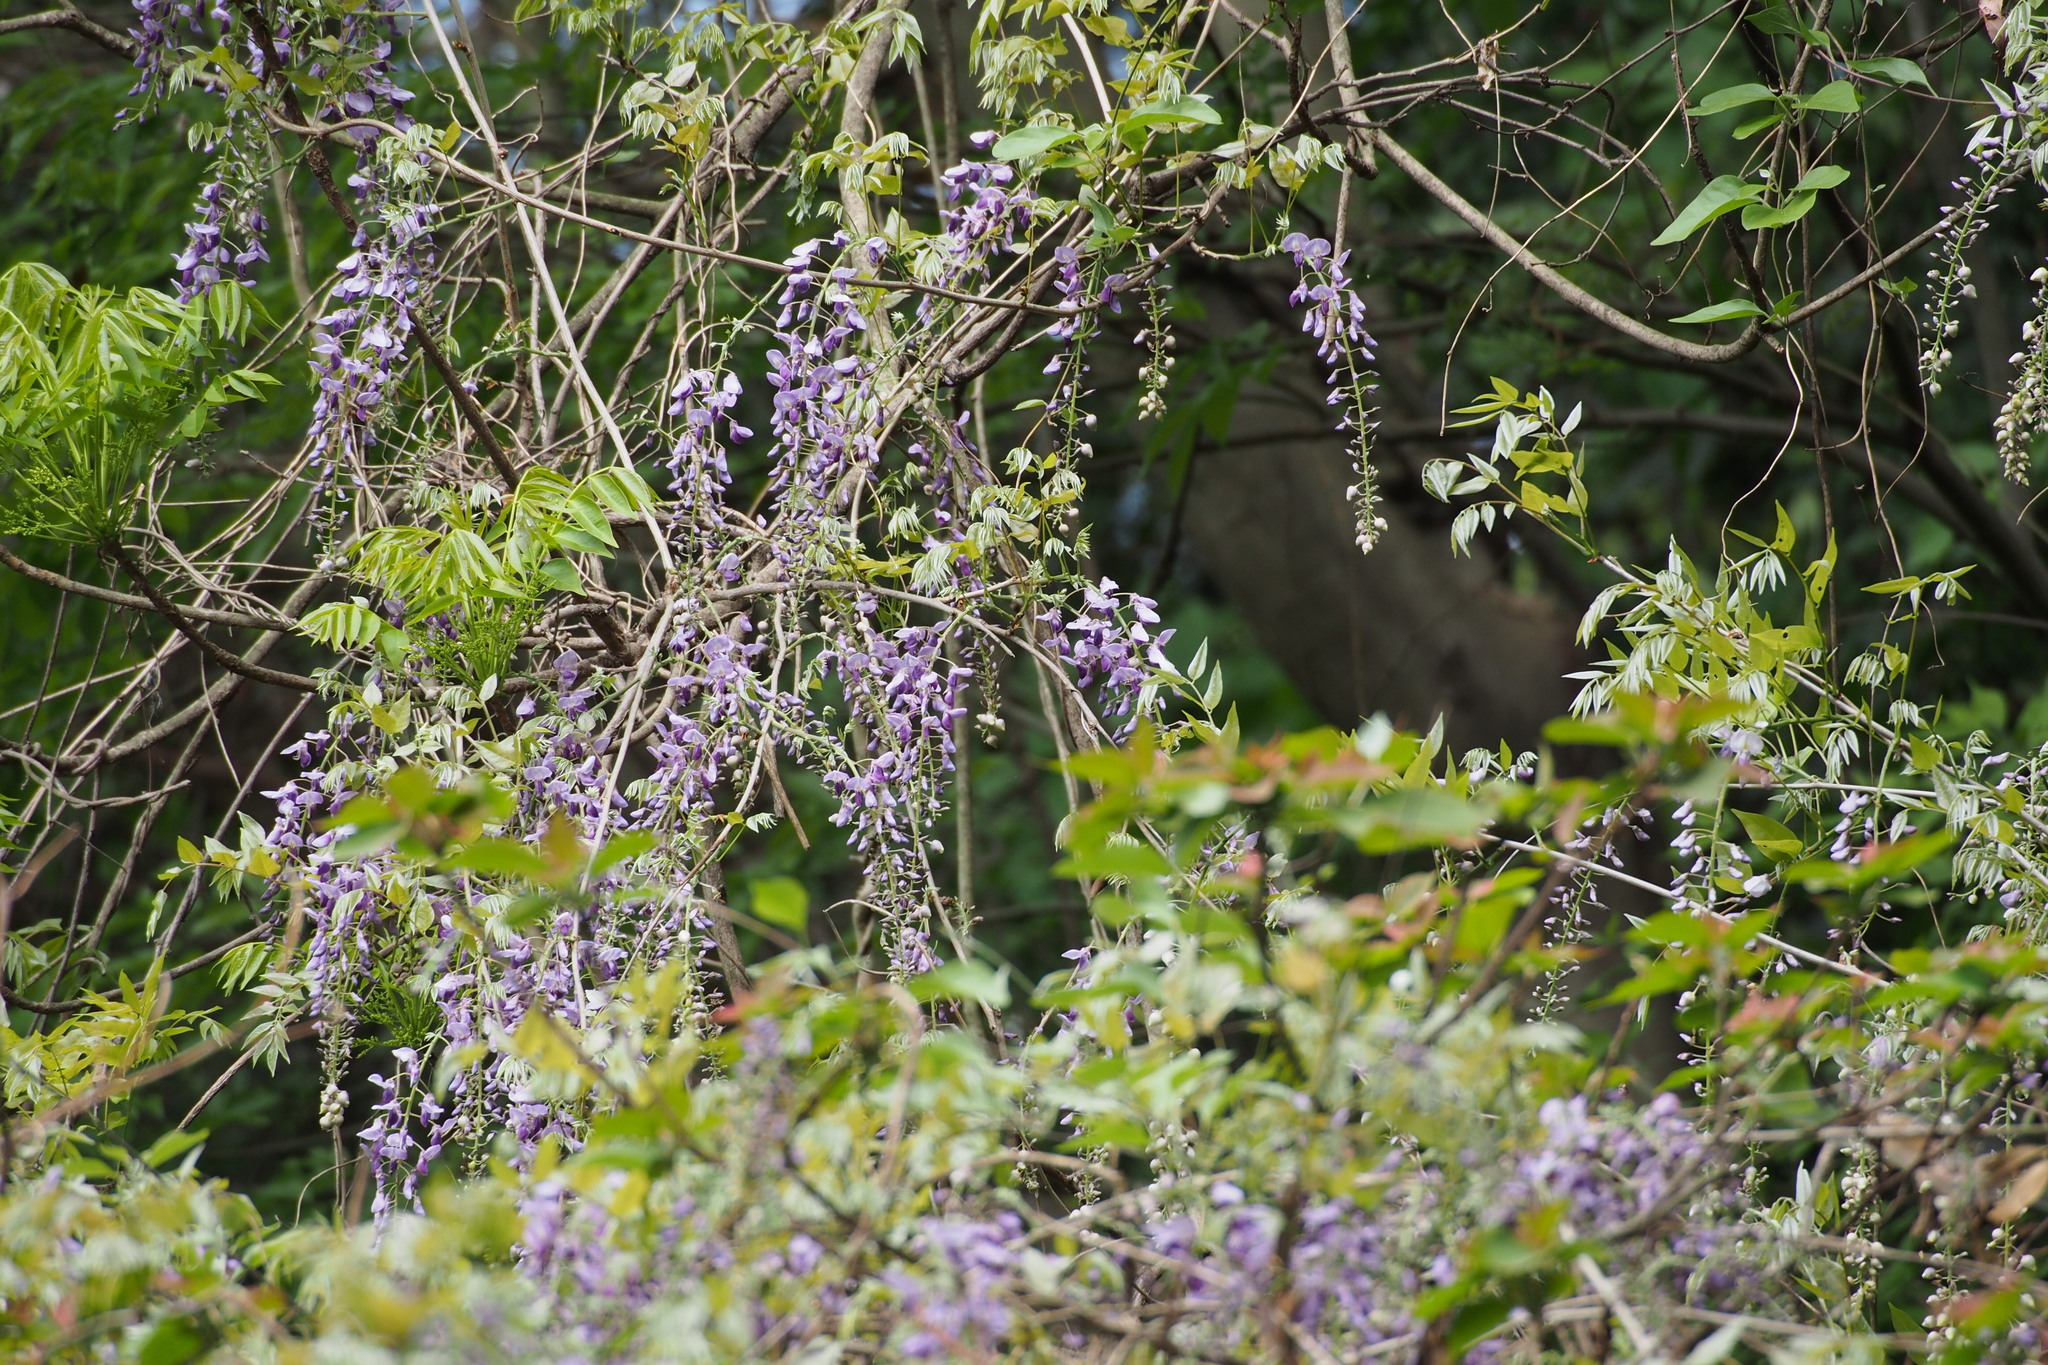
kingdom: Plantae
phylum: Tracheophyta
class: Magnoliopsida
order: Fabales
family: Fabaceae
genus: Wisteria
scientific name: Wisteria floribunda
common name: Japanese wisteria
